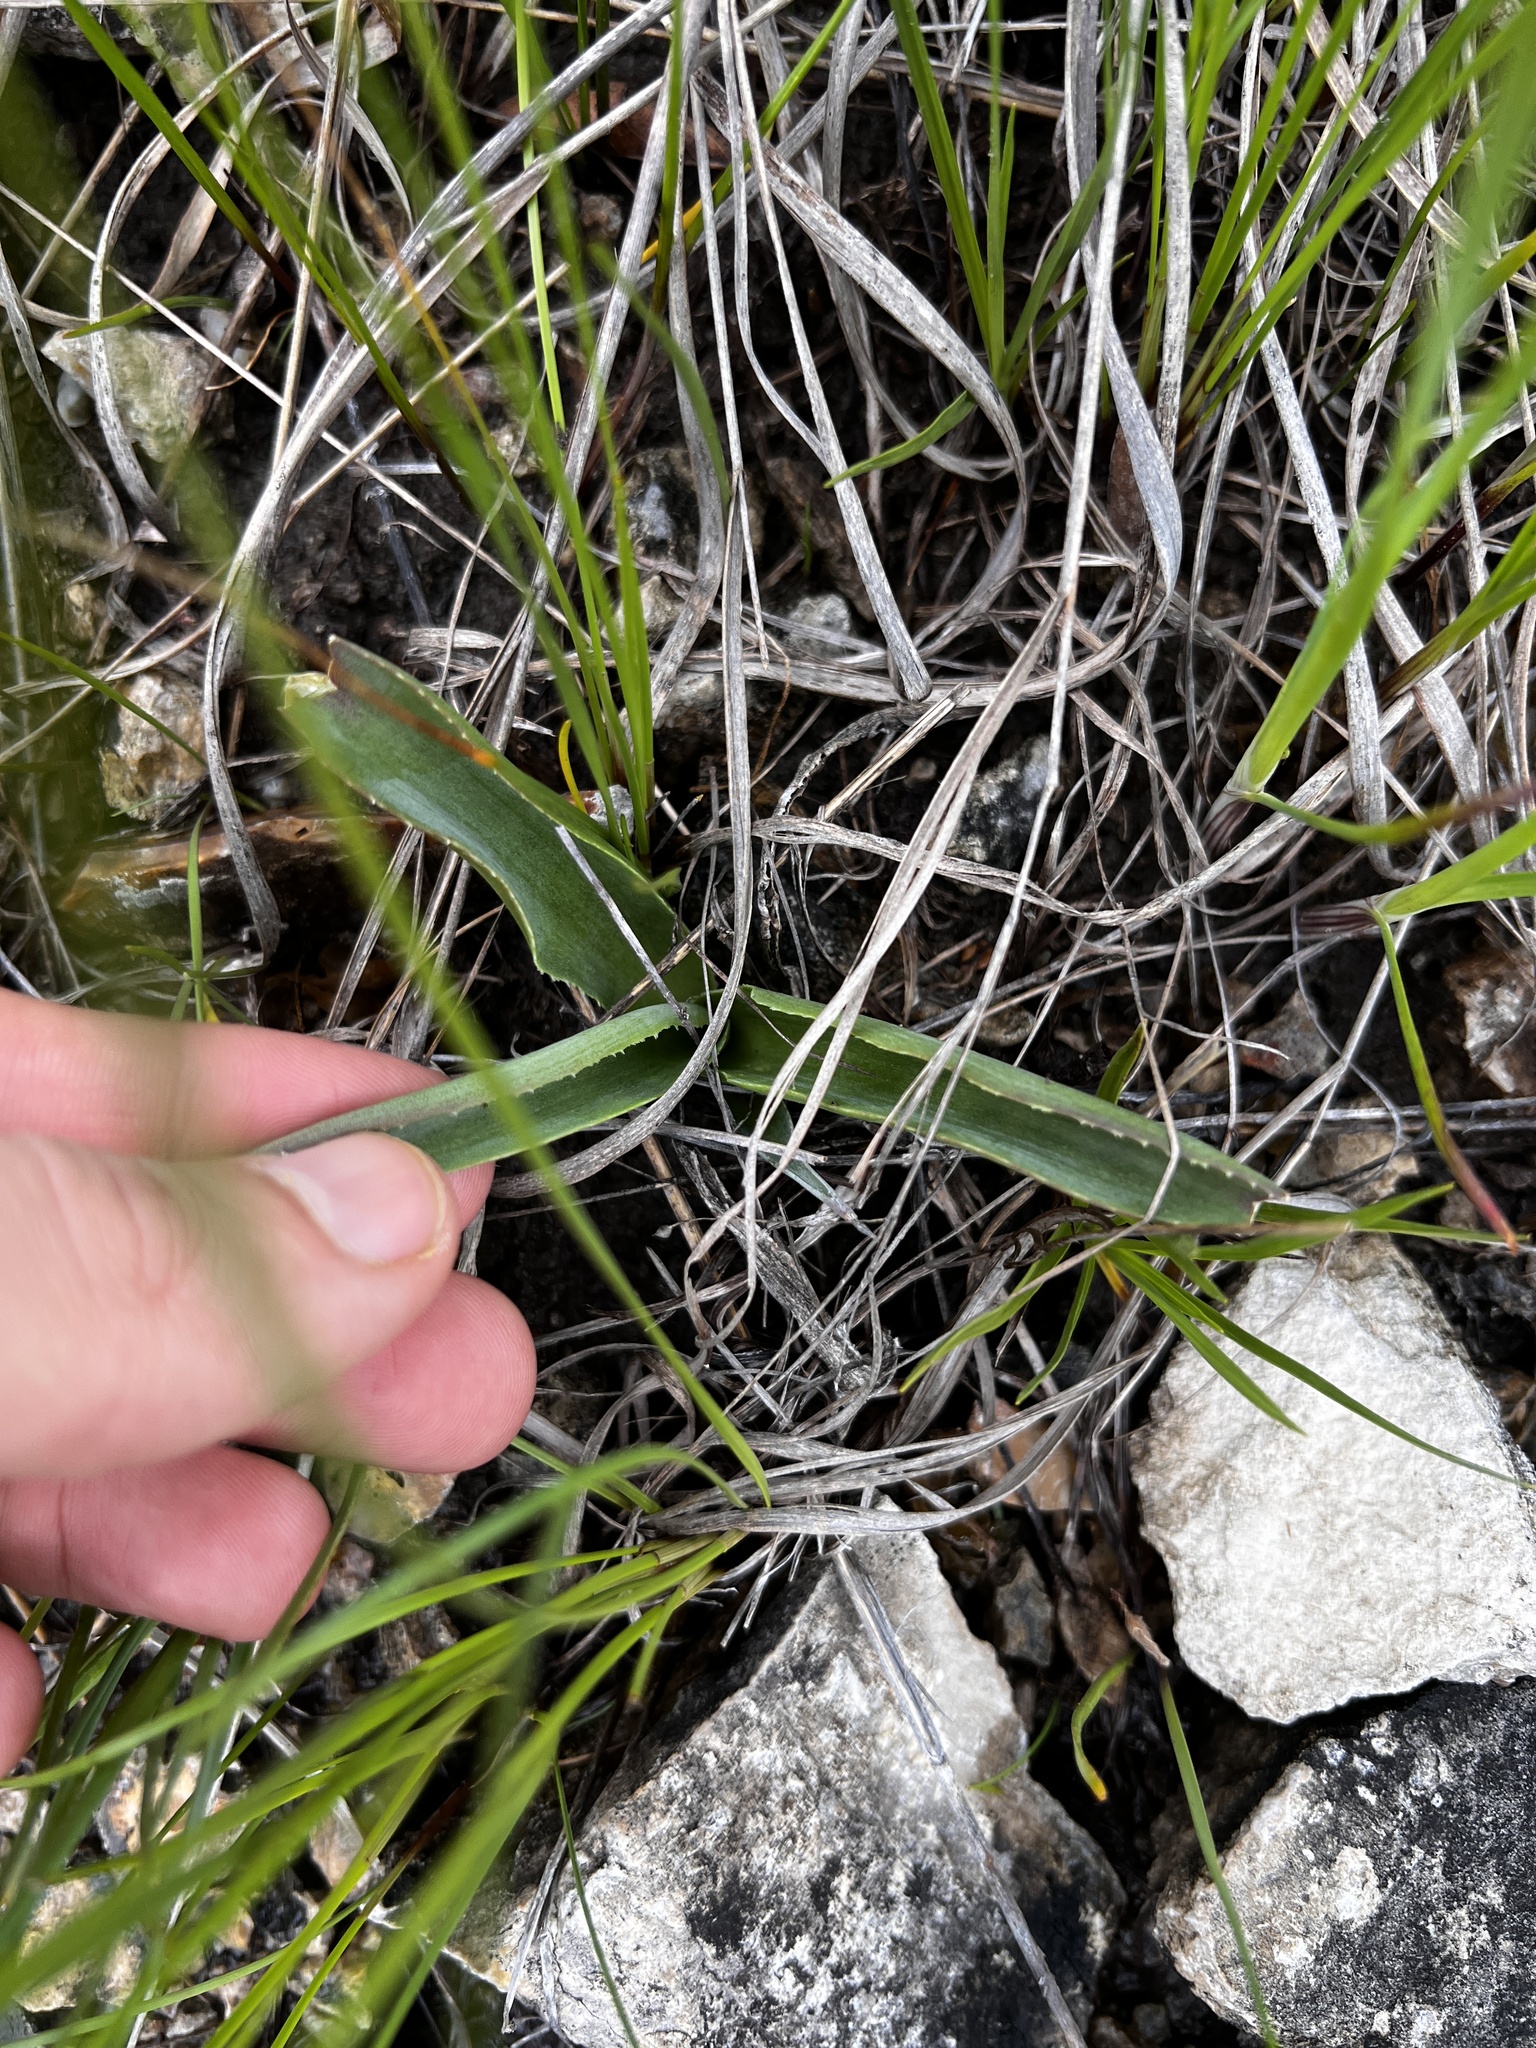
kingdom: Plantae
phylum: Tracheophyta
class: Liliopsida
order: Asparagales
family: Asparagaceae
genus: Agave
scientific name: Agave virginica
